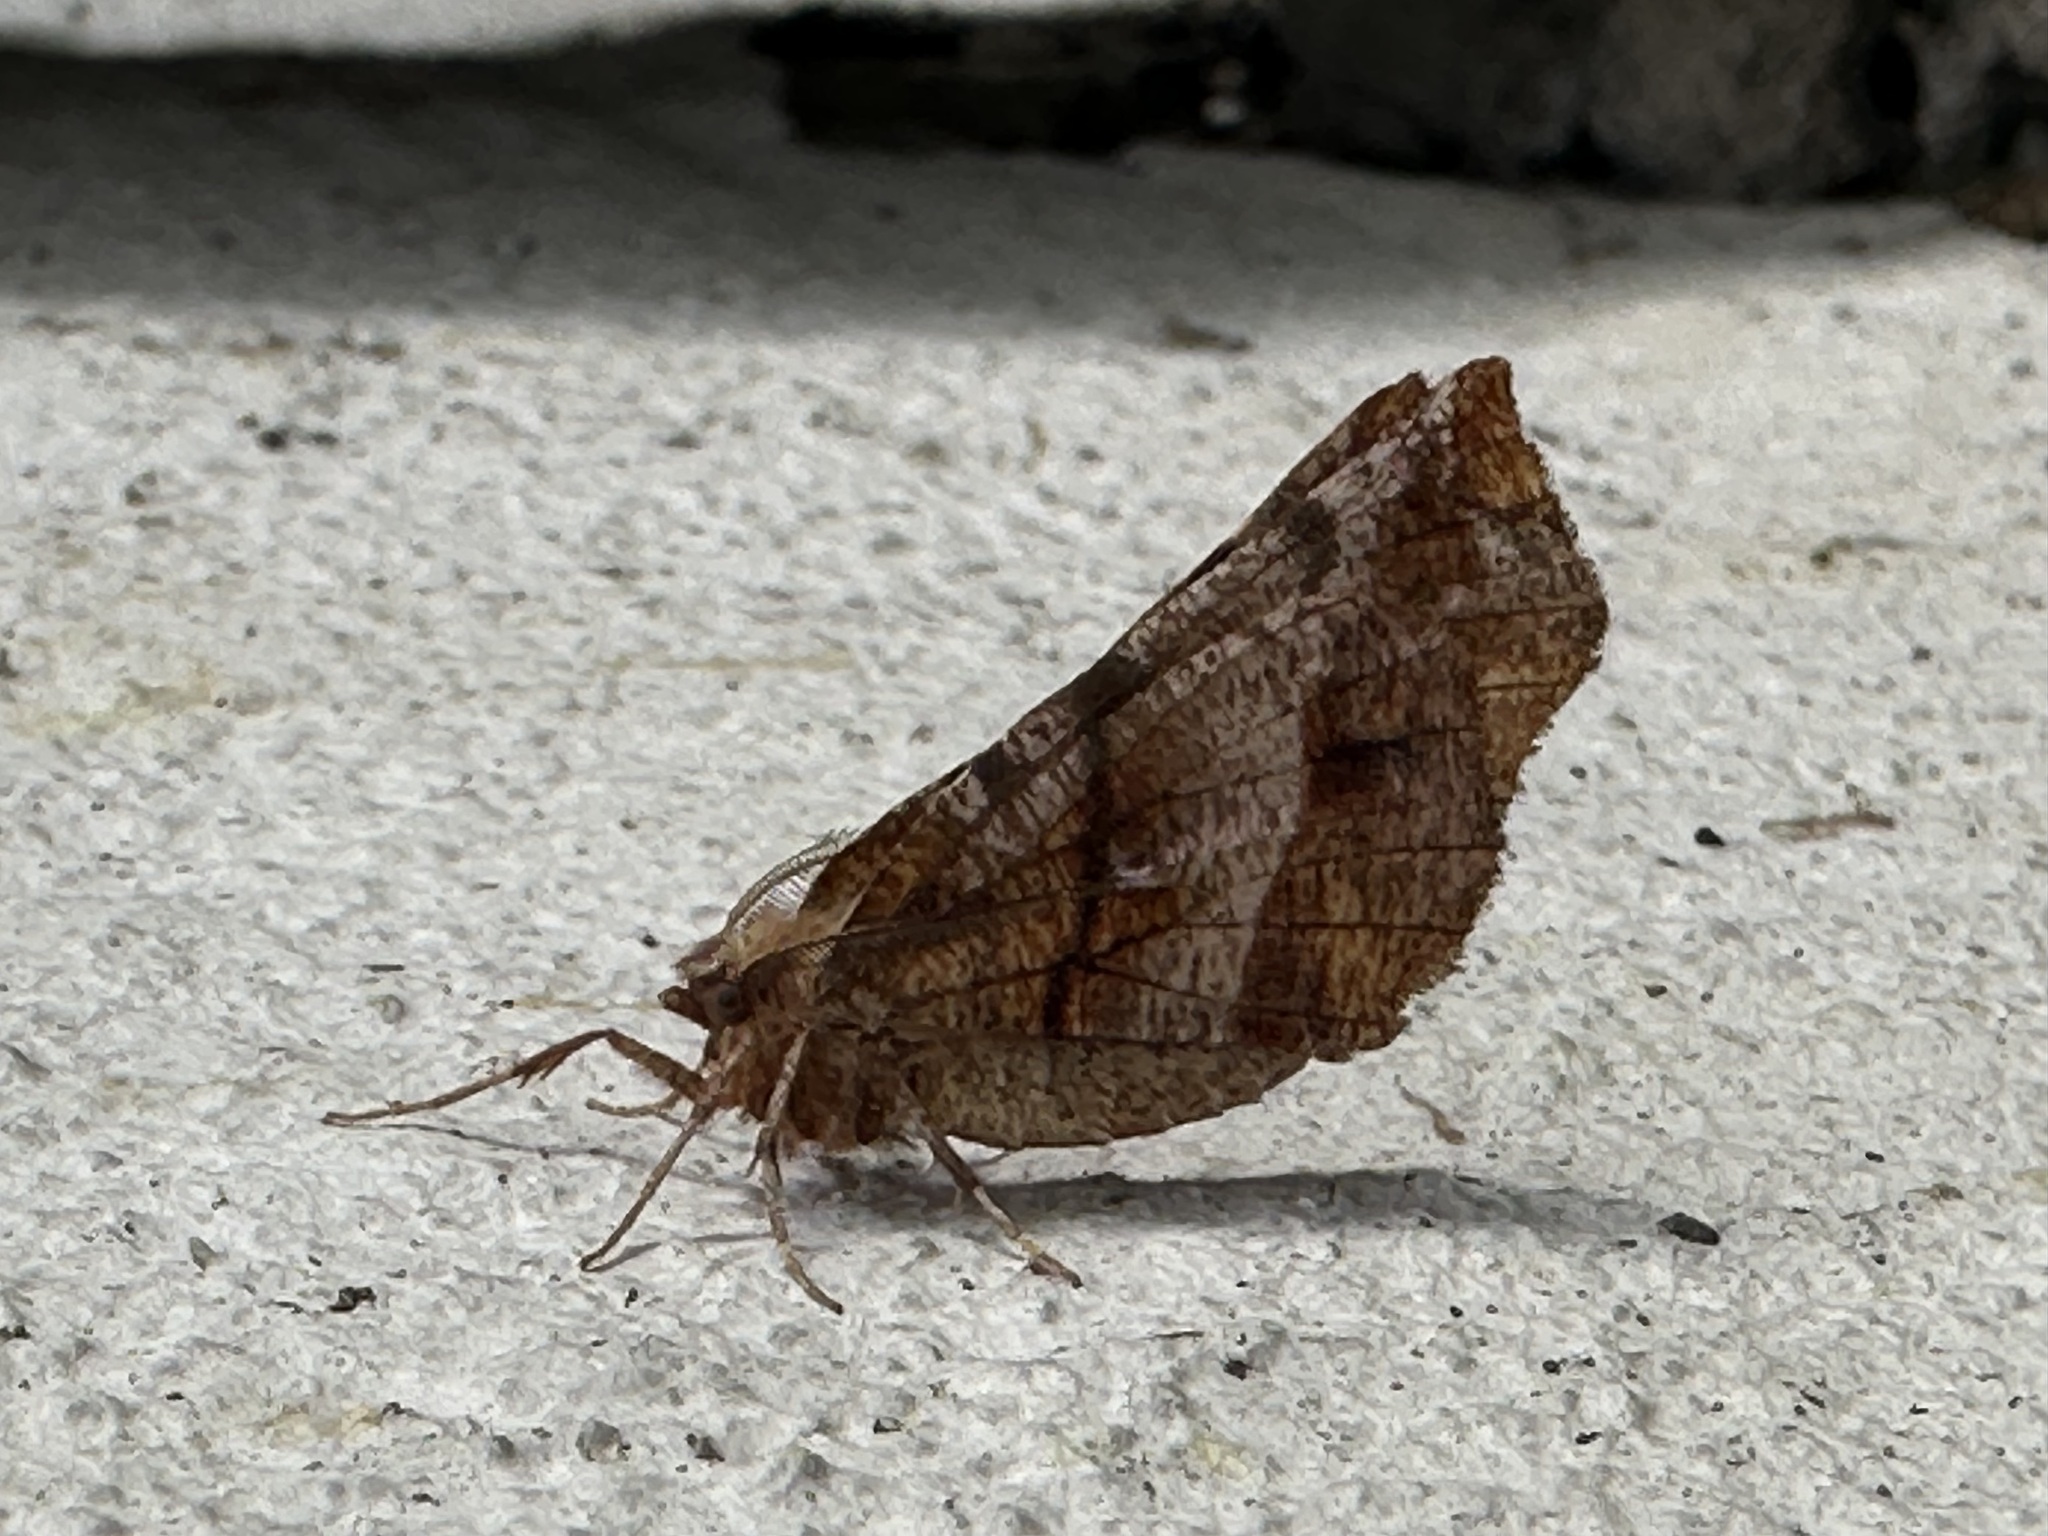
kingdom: Animalia
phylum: Arthropoda
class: Insecta
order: Lepidoptera
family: Geometridae
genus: Selenia
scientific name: Selenia dentaria
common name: Early thorn
